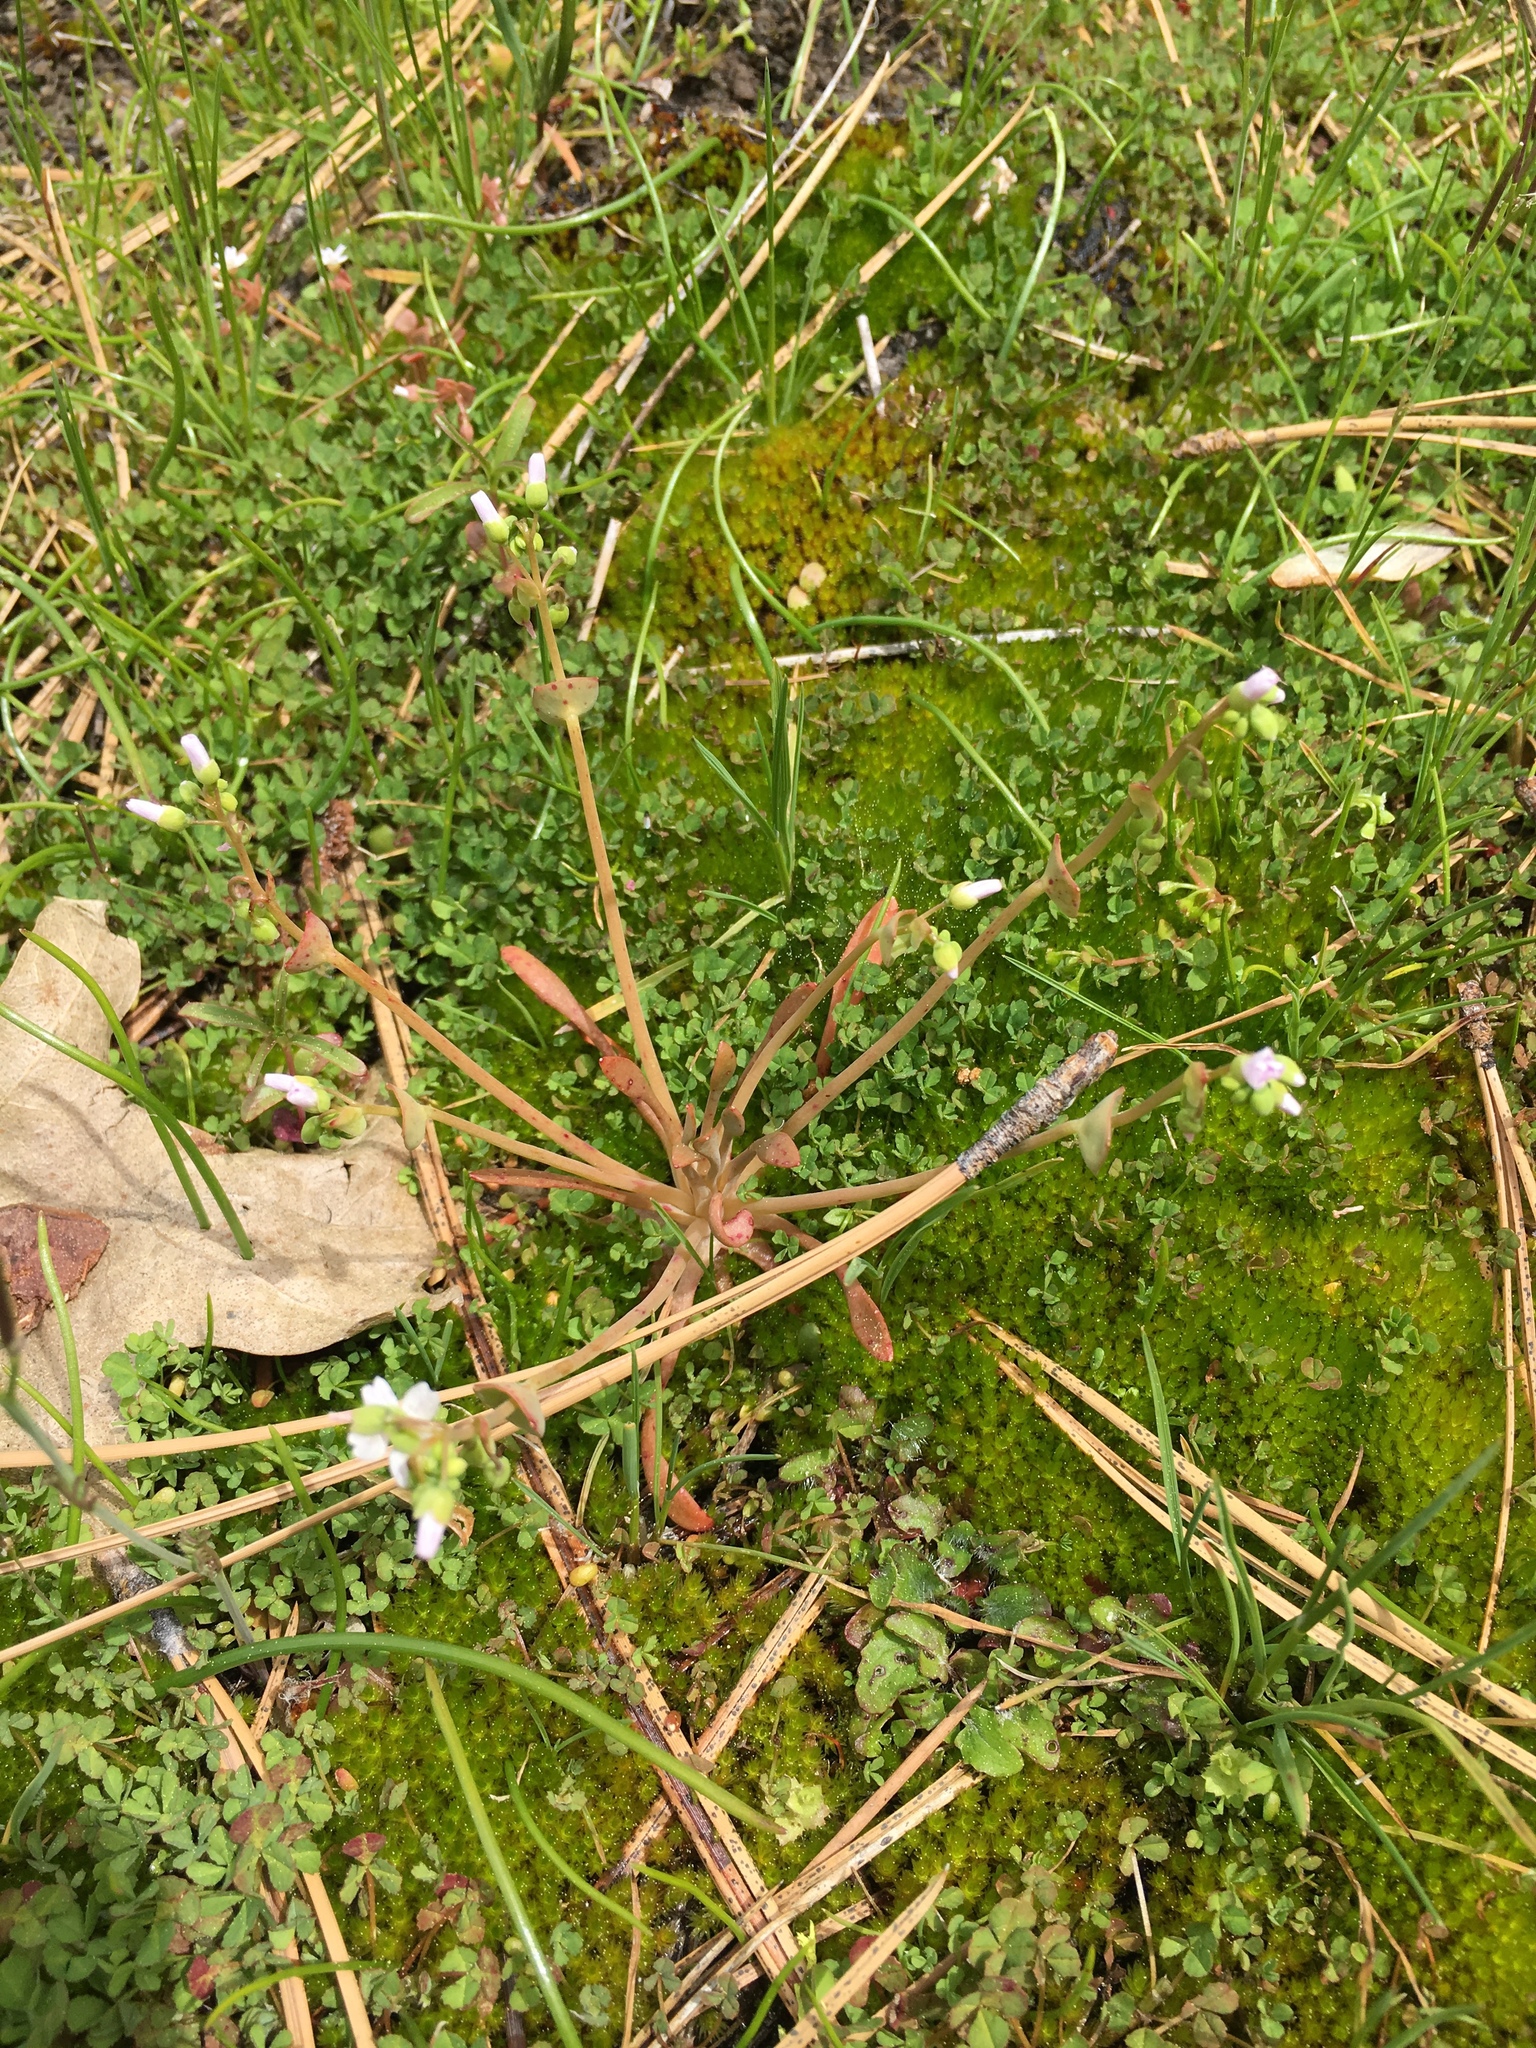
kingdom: Plantae
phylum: Tracheophyta
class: Magnoliopsida
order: Caryophyllales
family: Montiaceae
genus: Claytonia
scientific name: Claytonia parviflora
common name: Indian-lettuce
